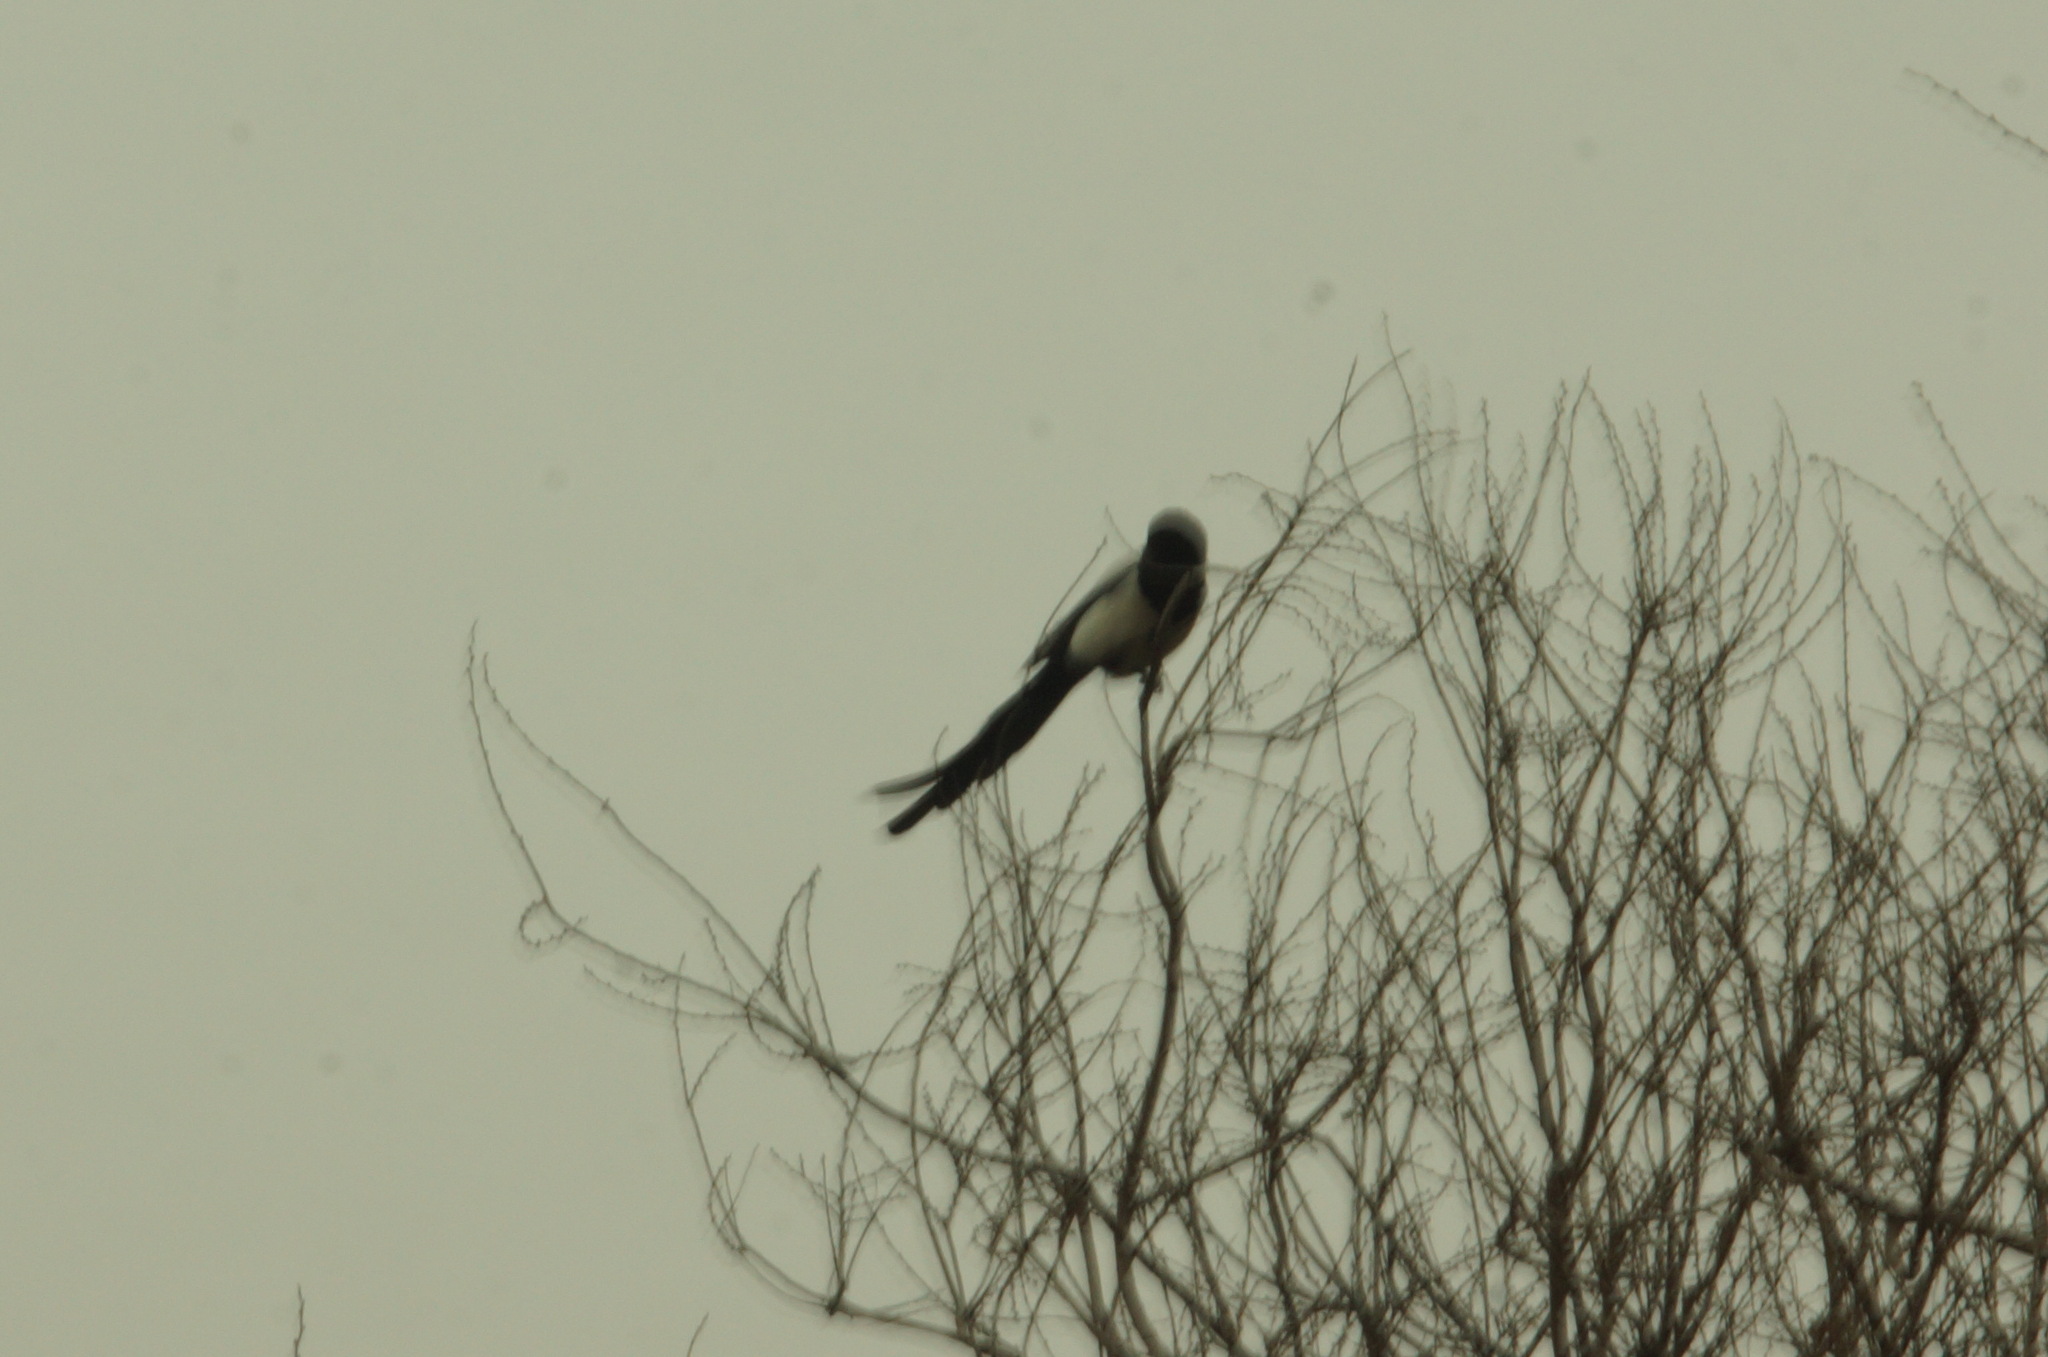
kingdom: Animalia
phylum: Chordata
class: Aves
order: Passeriformes
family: Corvidae
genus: Pica
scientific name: Pica pica
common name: Eurasian magpie
